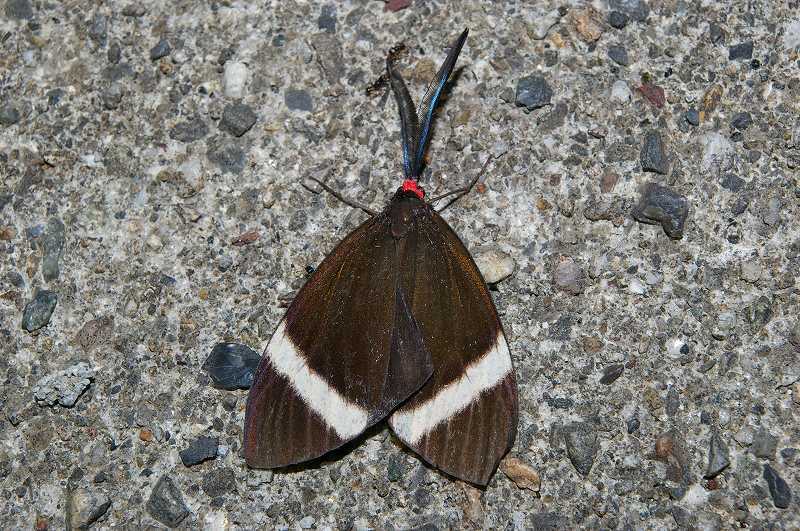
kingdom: Animalia
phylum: Arthropoda
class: Insecta
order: Lepidoptera
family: Zygaenidae
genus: Pidorus
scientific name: Pidorus glaucopis
